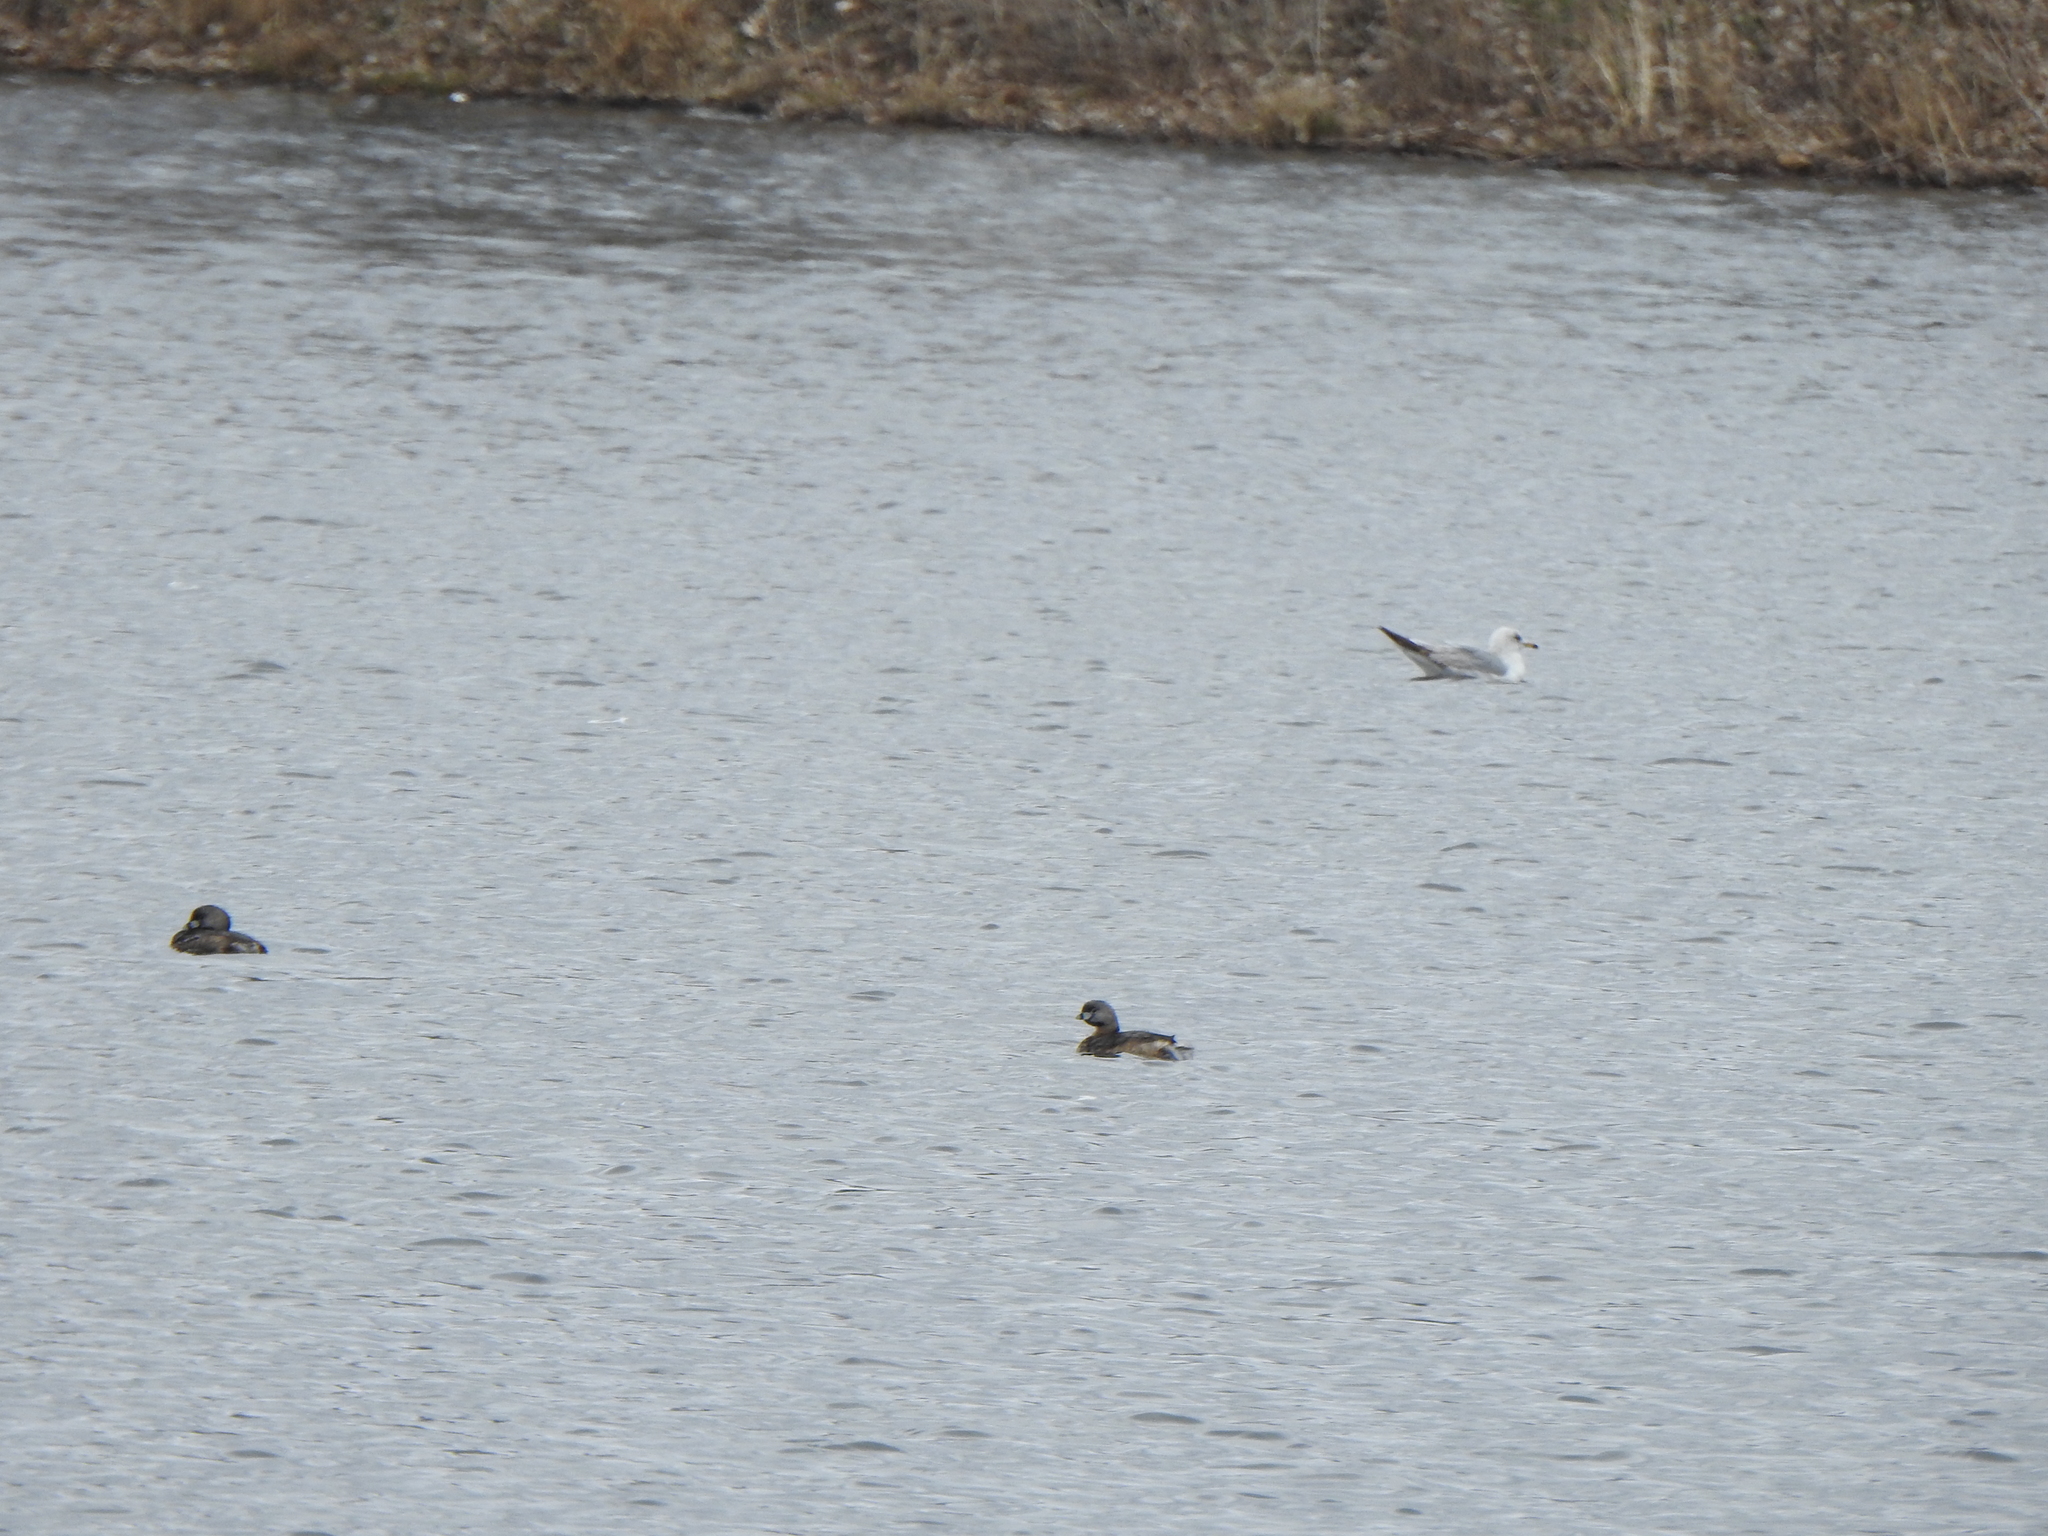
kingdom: Animalia
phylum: Chordata
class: Aves
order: Podicipediformes
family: Podicipedidae
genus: Podilymbus
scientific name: Podilymbus podiceps
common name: Pied-billed grebe
